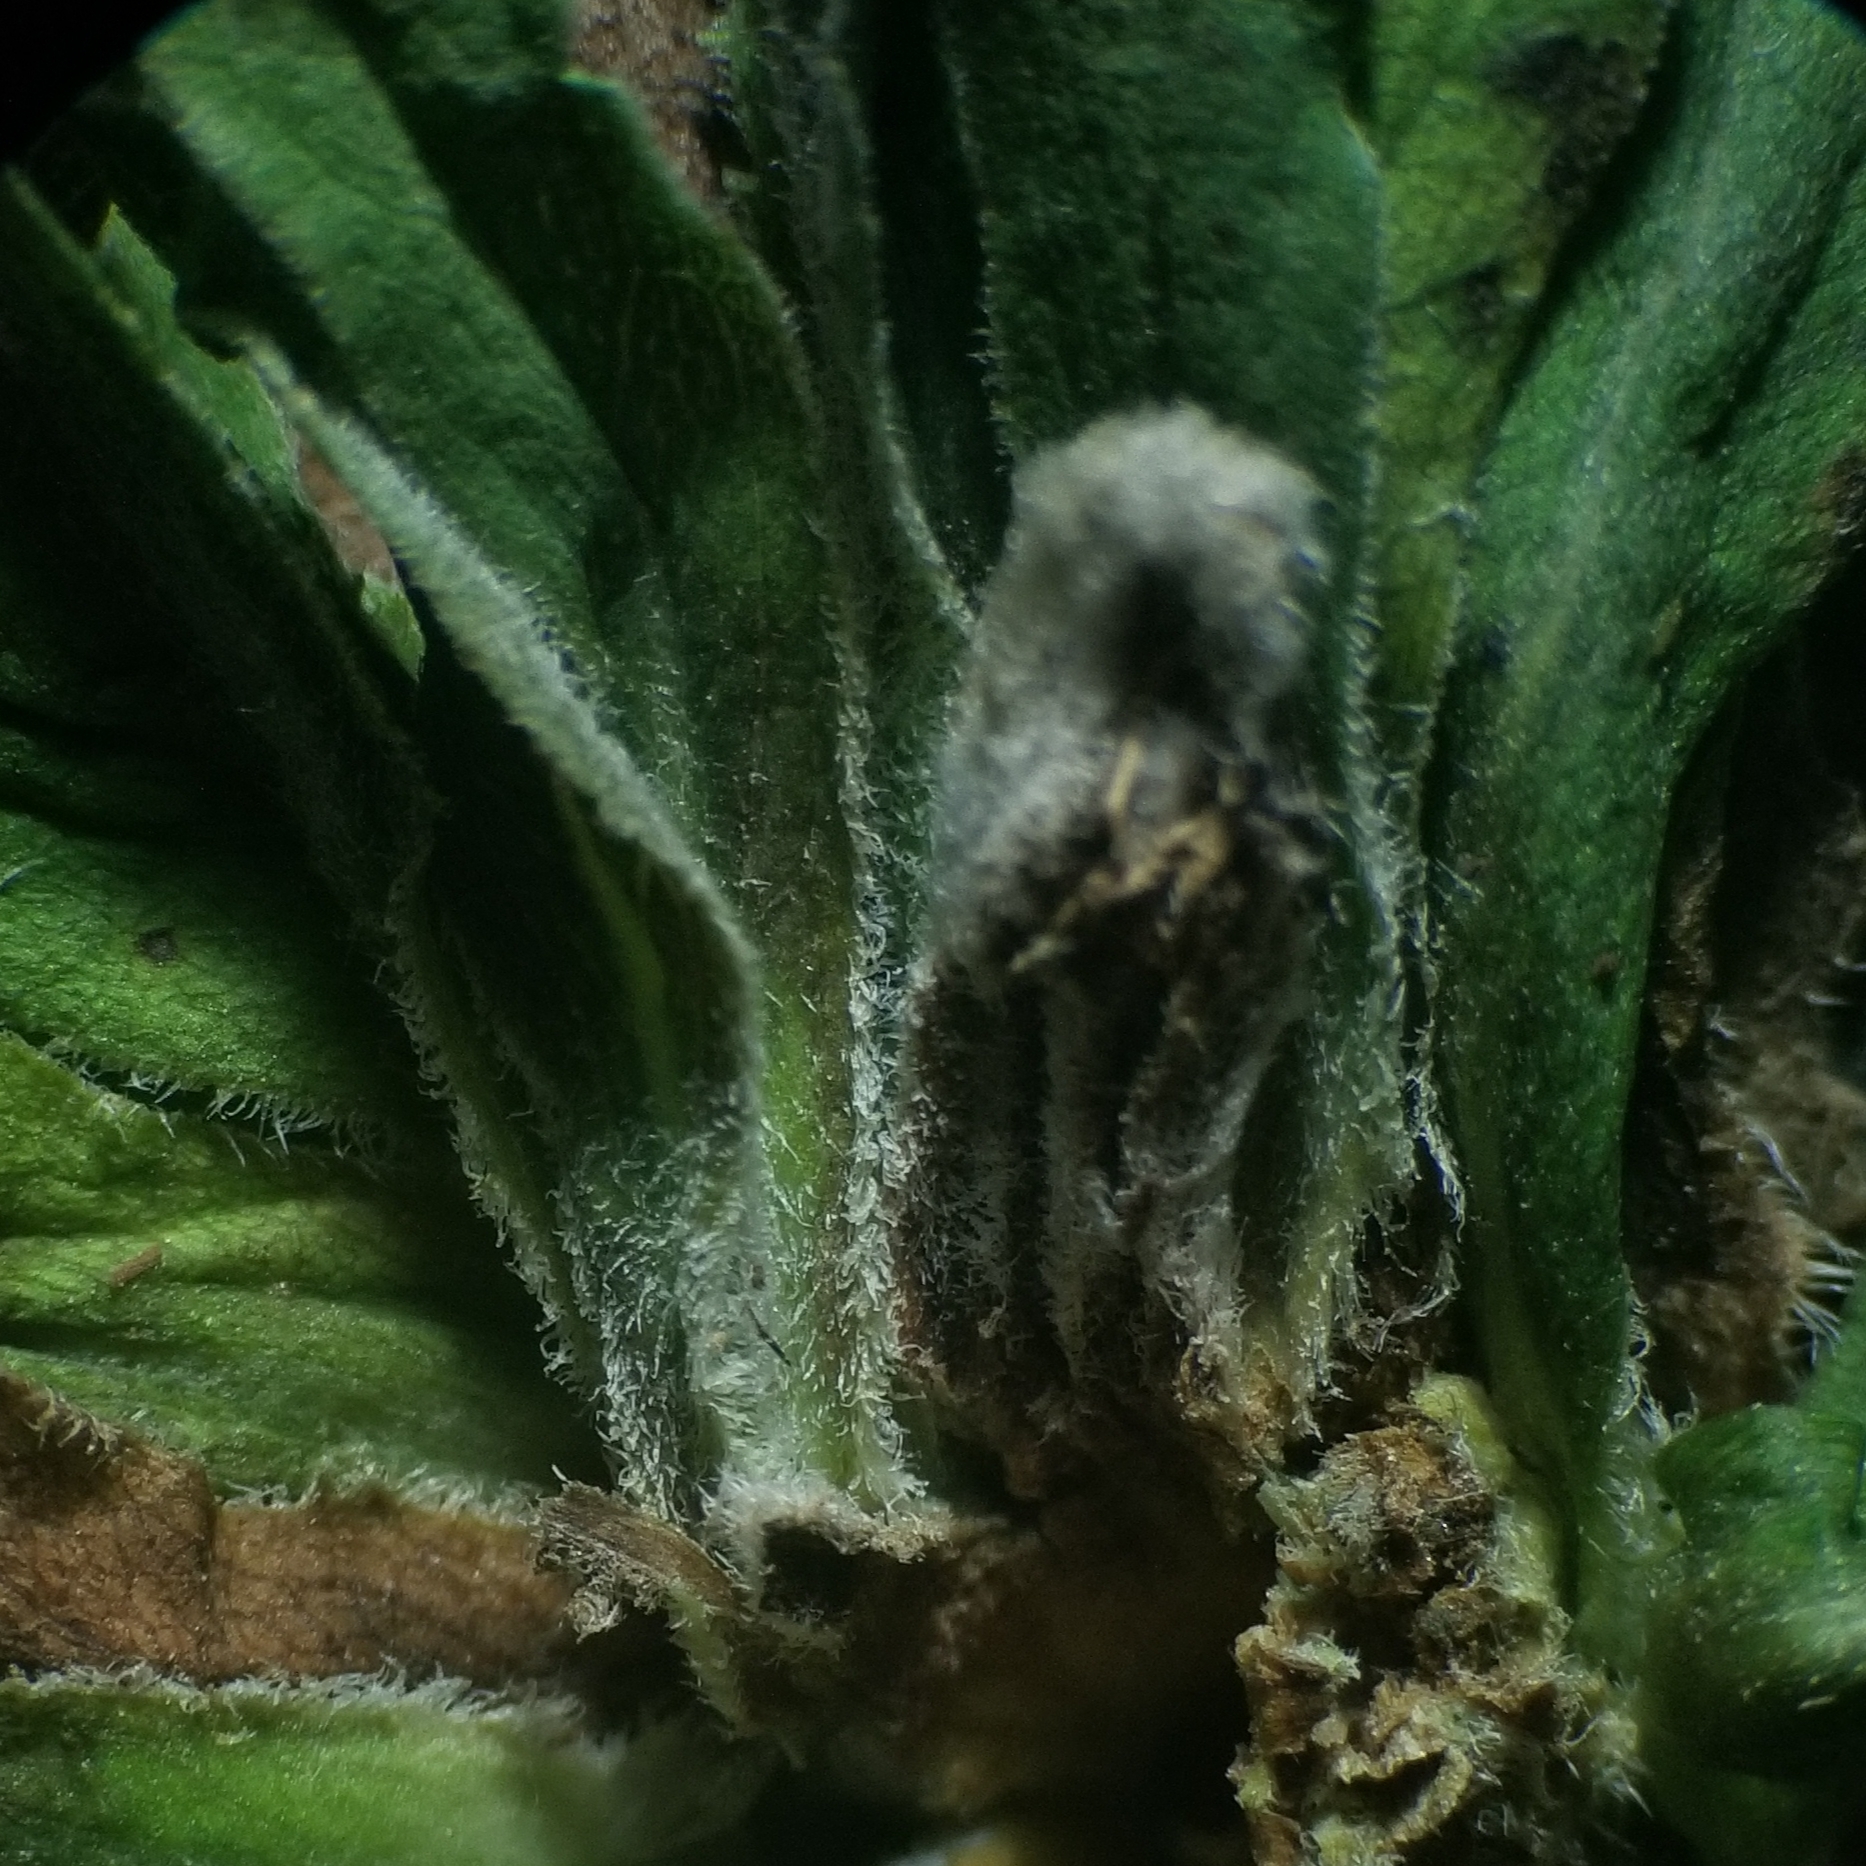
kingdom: Animalia
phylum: Arthropoda
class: Insecta
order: Diptera
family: Tephritidae
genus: Procecidochares
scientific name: Procecidochares atra
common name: Goldenrod brussels sprout gall fly
